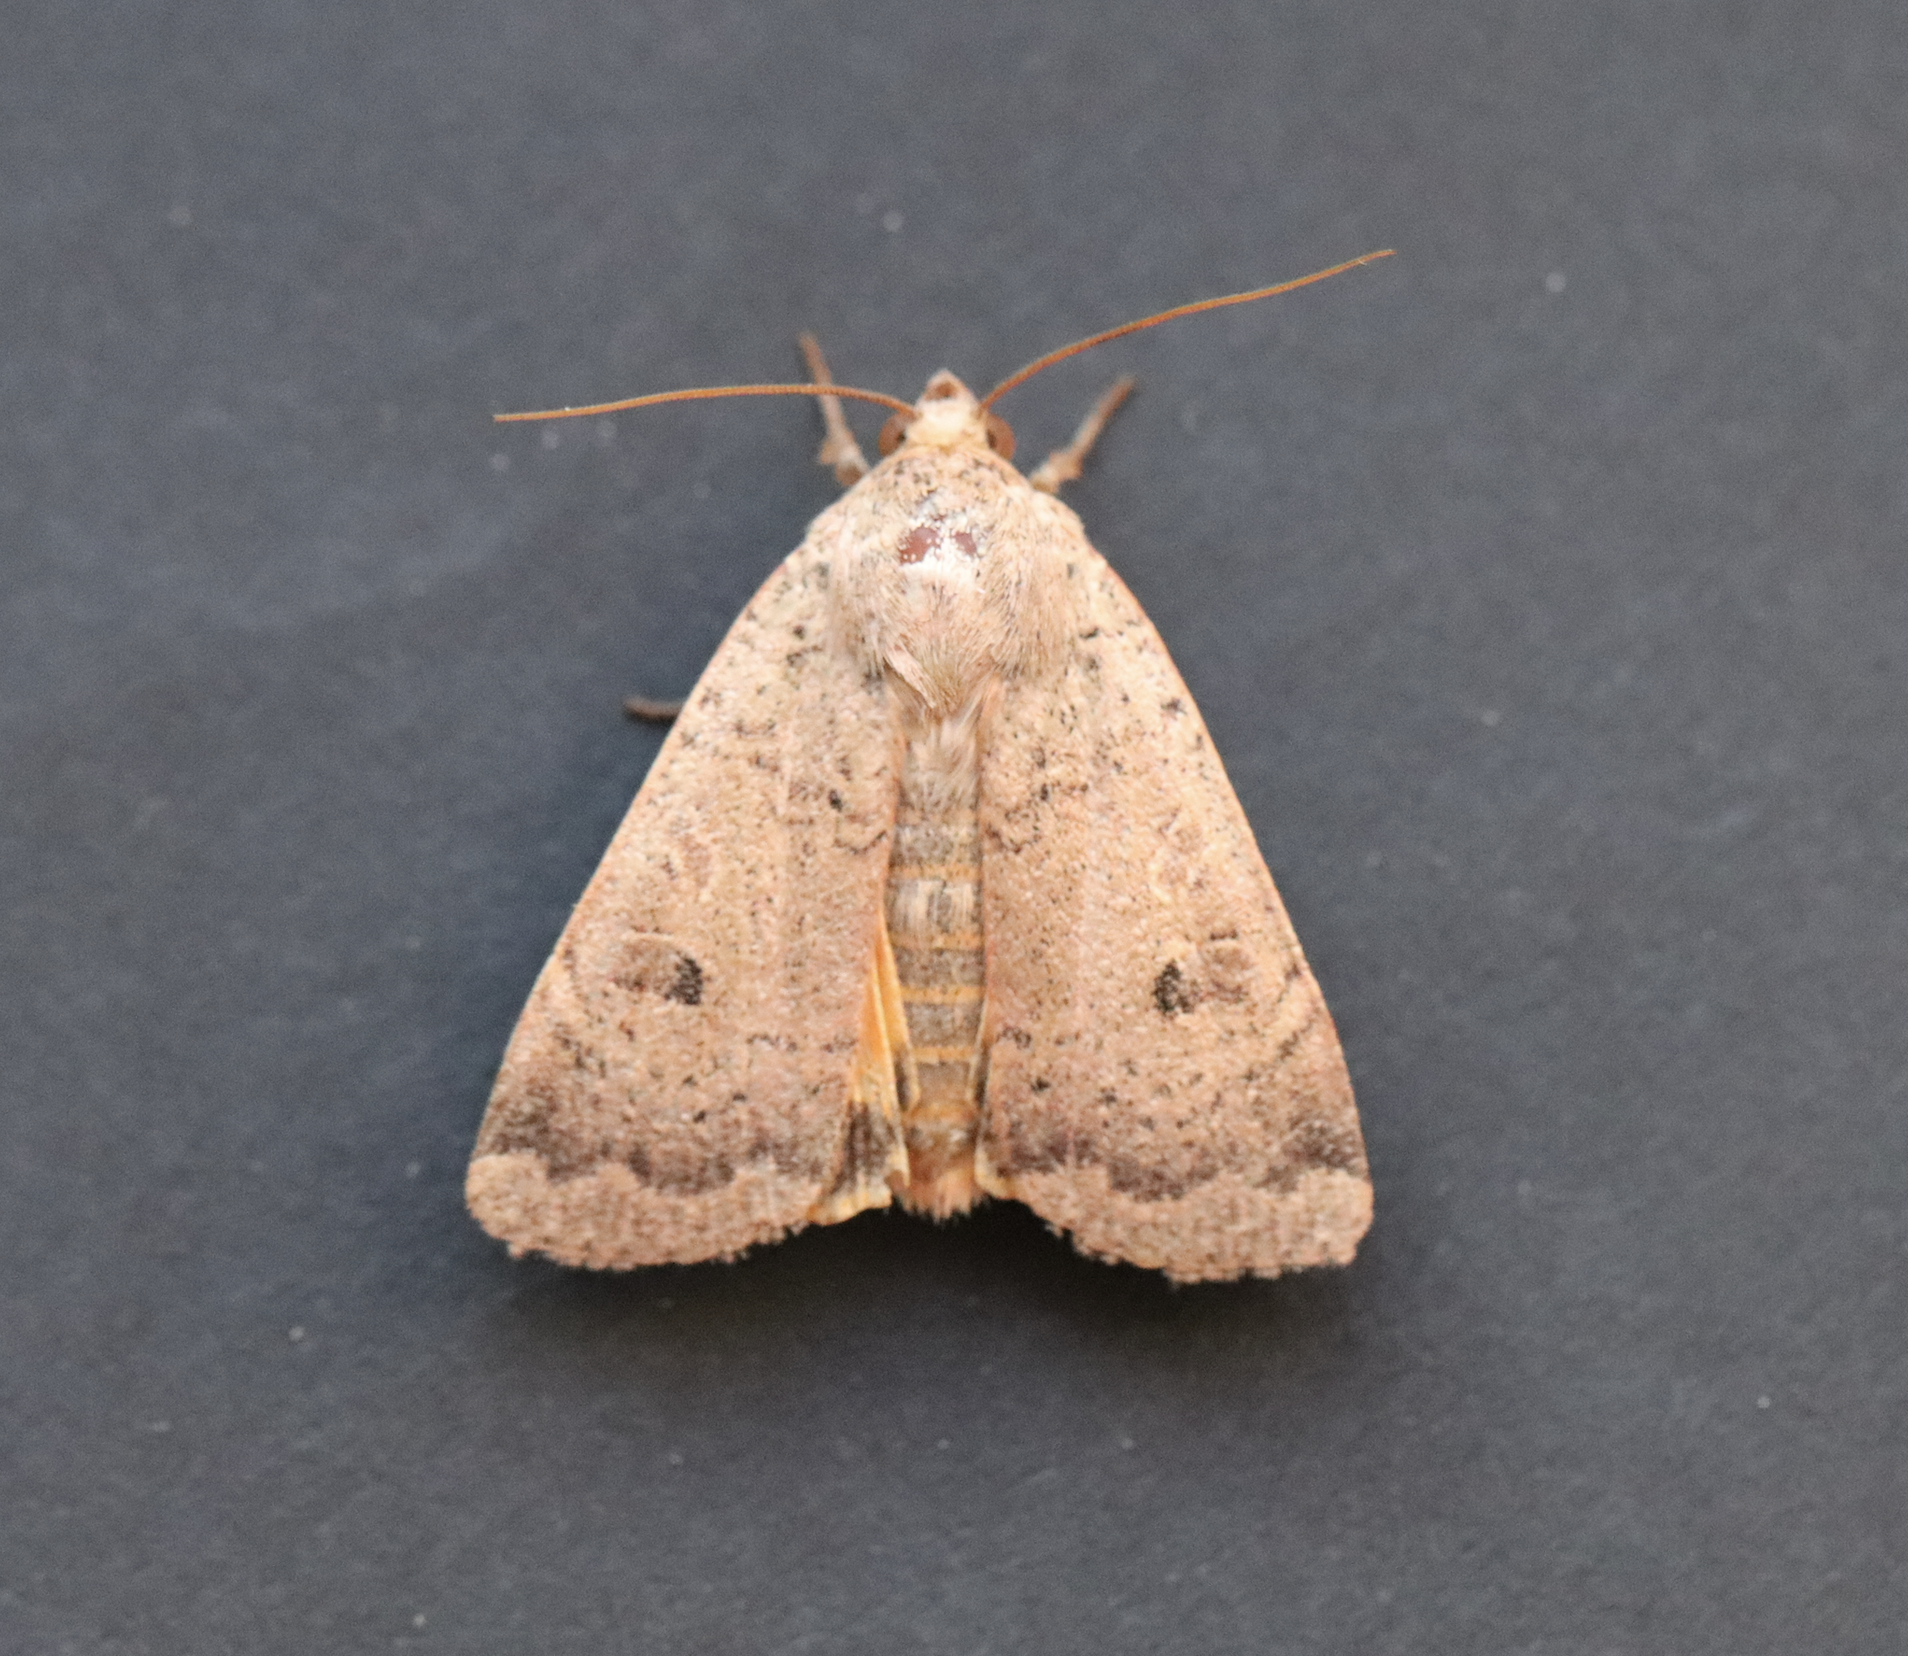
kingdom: Animalia
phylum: Arthropoda
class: Insecta
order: Lepidoptera
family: Noctuidae
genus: Noctua
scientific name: Noctua comes
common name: Lesser yellow underwing
